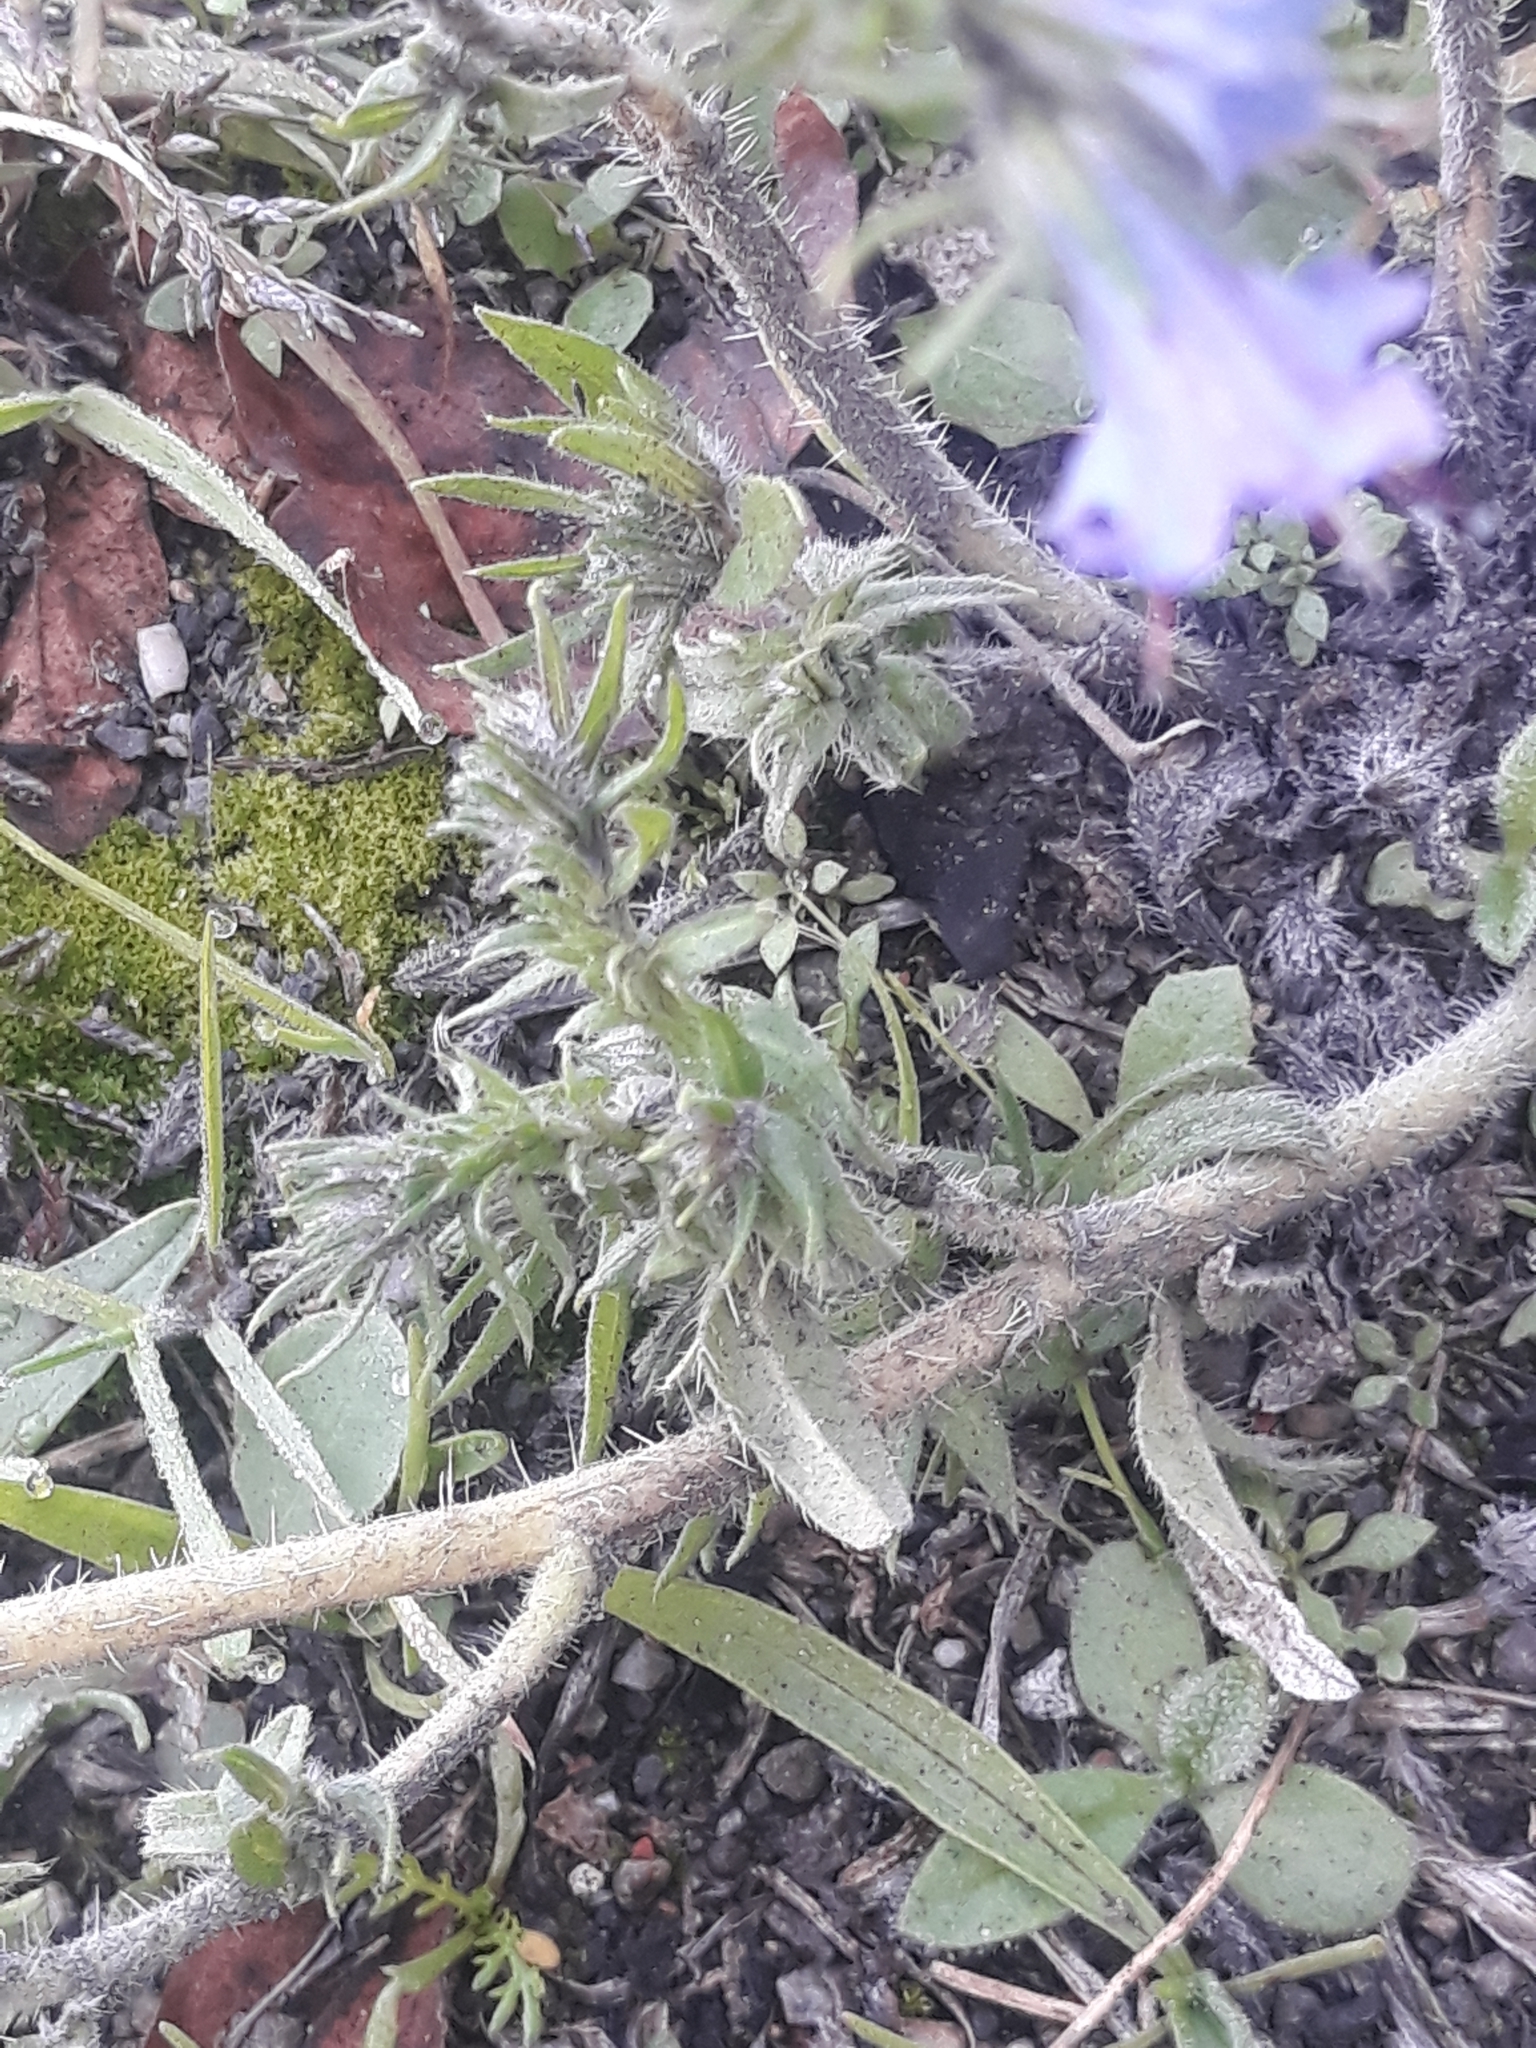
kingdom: Plantae
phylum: Tracheophyta
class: Magnoliopsida
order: Boraginales
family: Boraginaceae
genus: Echium
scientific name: Echium vulgare
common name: Common viper's bugloss
